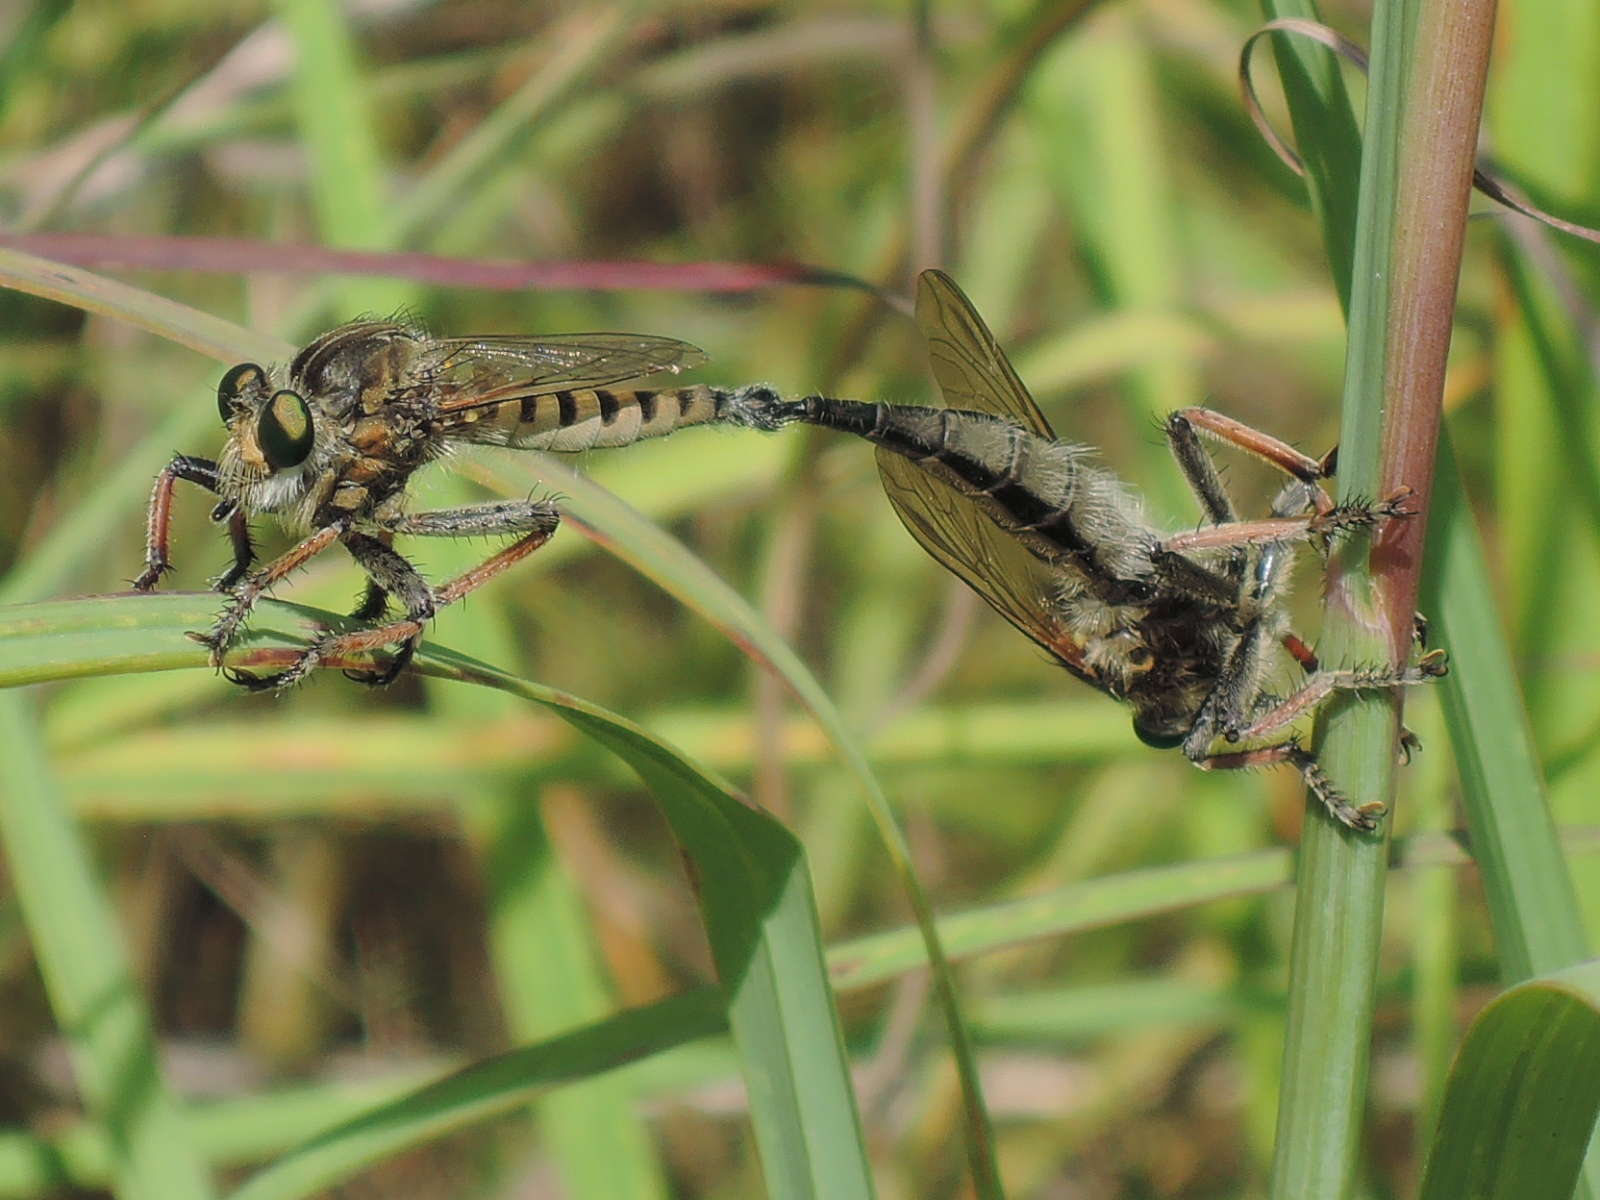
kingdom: Animalia
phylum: Arthropoda
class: Insecta
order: Diptera
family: Asilidae
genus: Promachus
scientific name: Promachus vertebratus
